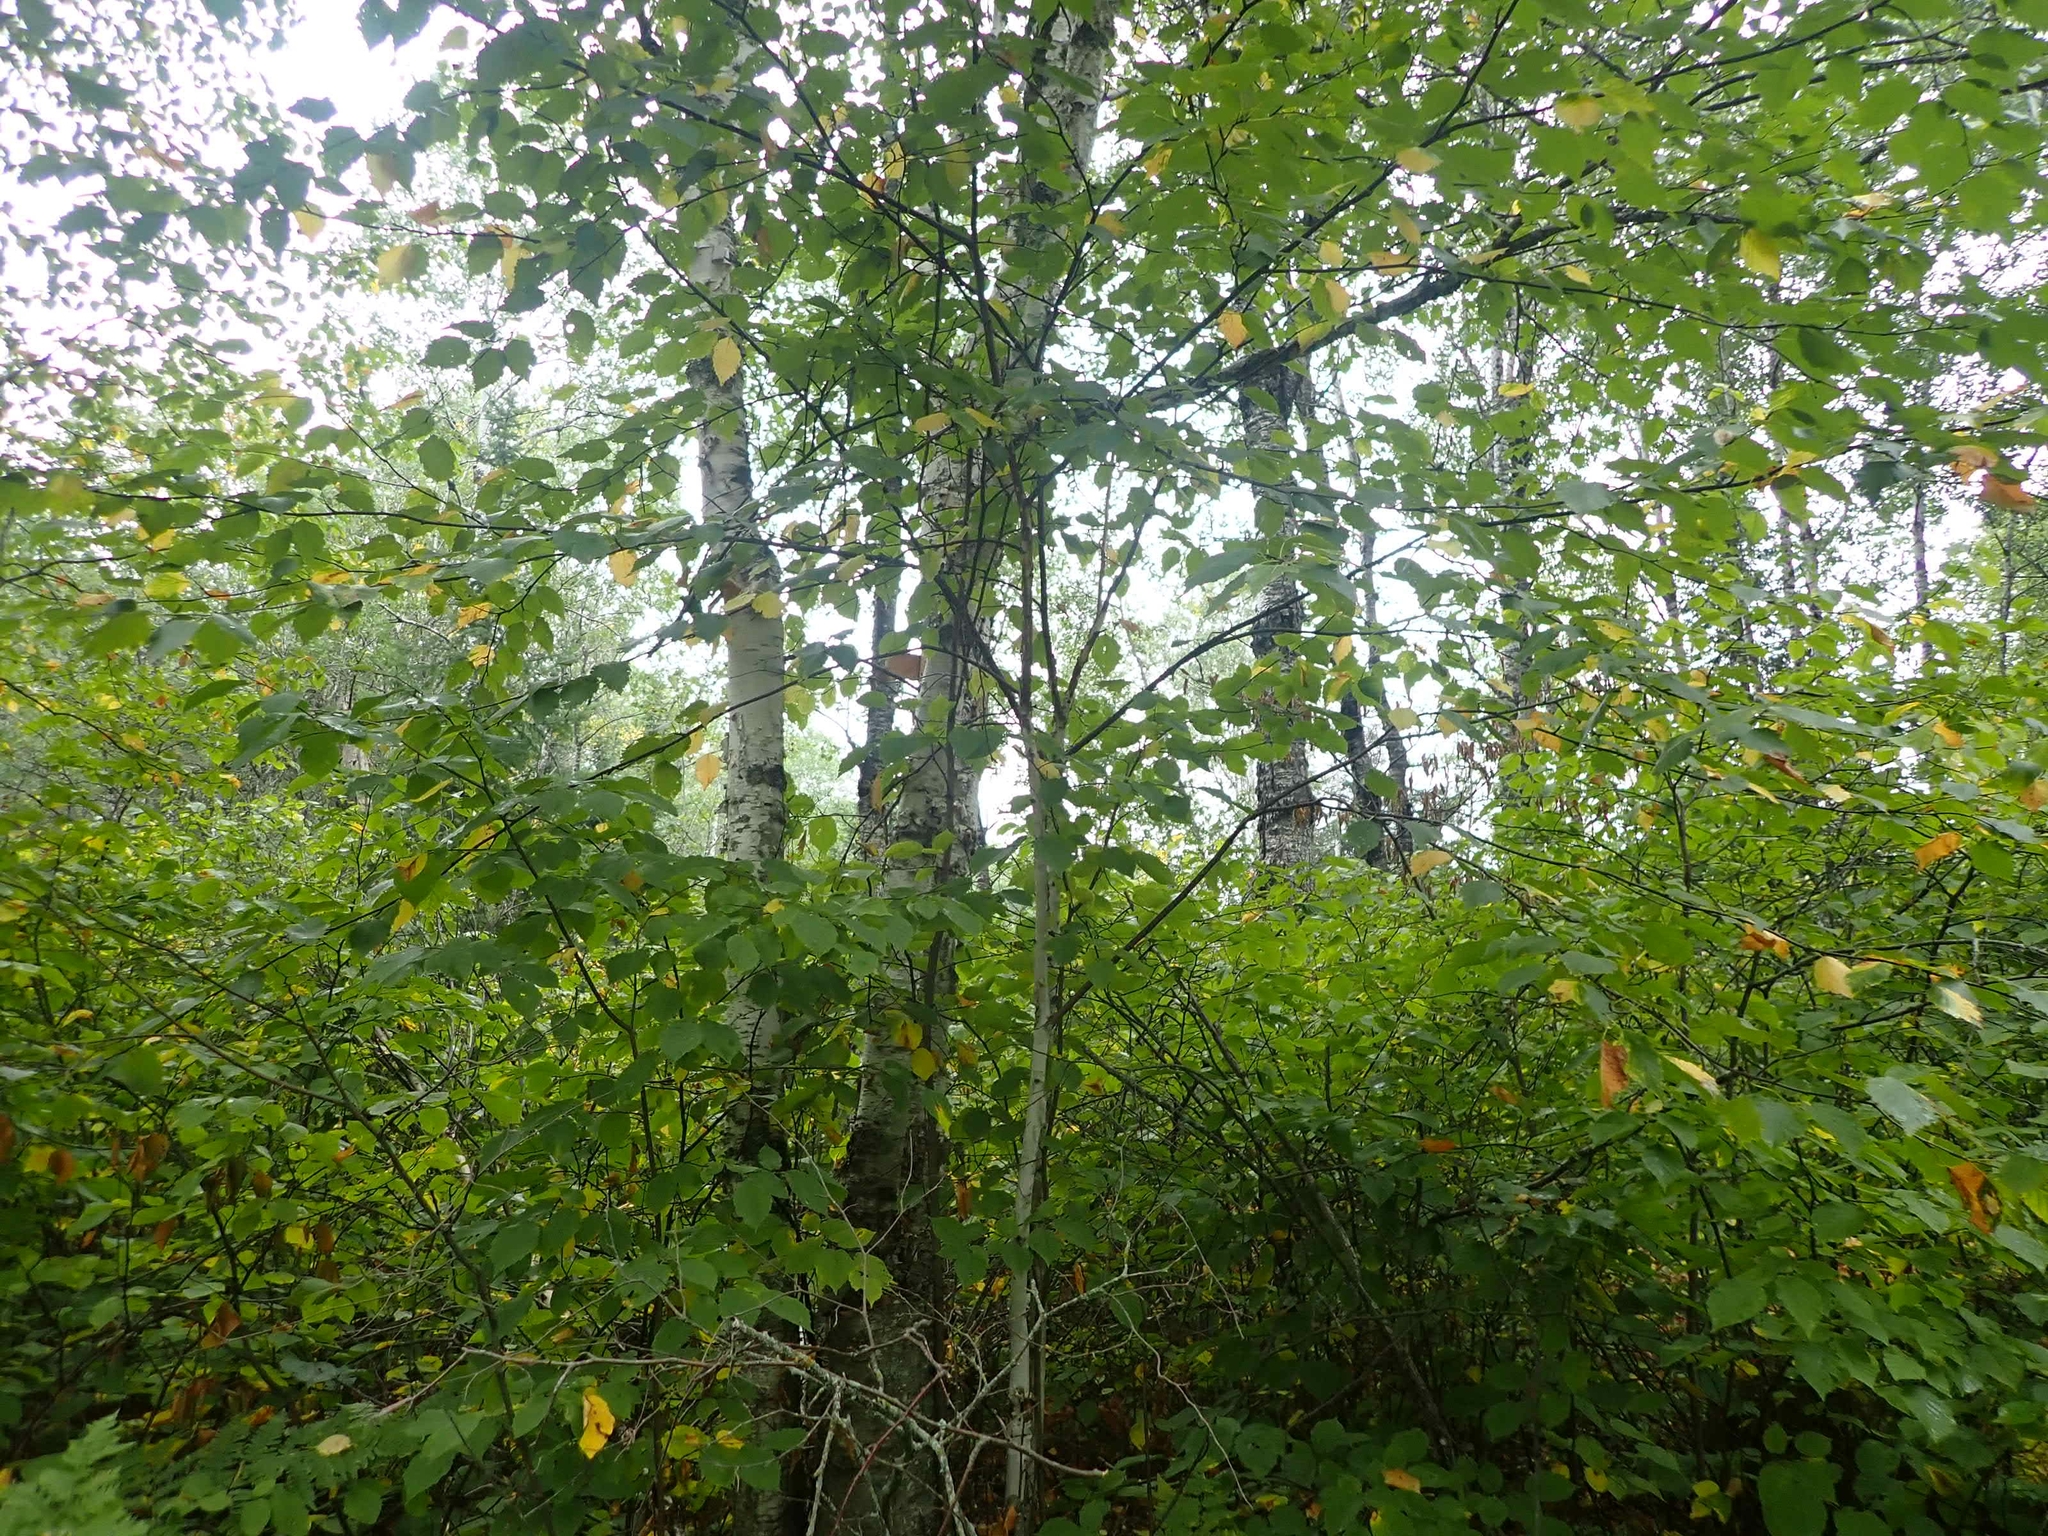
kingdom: Plantae
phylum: Tracheophyta
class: Magnoliopsida
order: Fagales
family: Betulaceae
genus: Betula
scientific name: Betula papyrifera
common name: Paper birch
